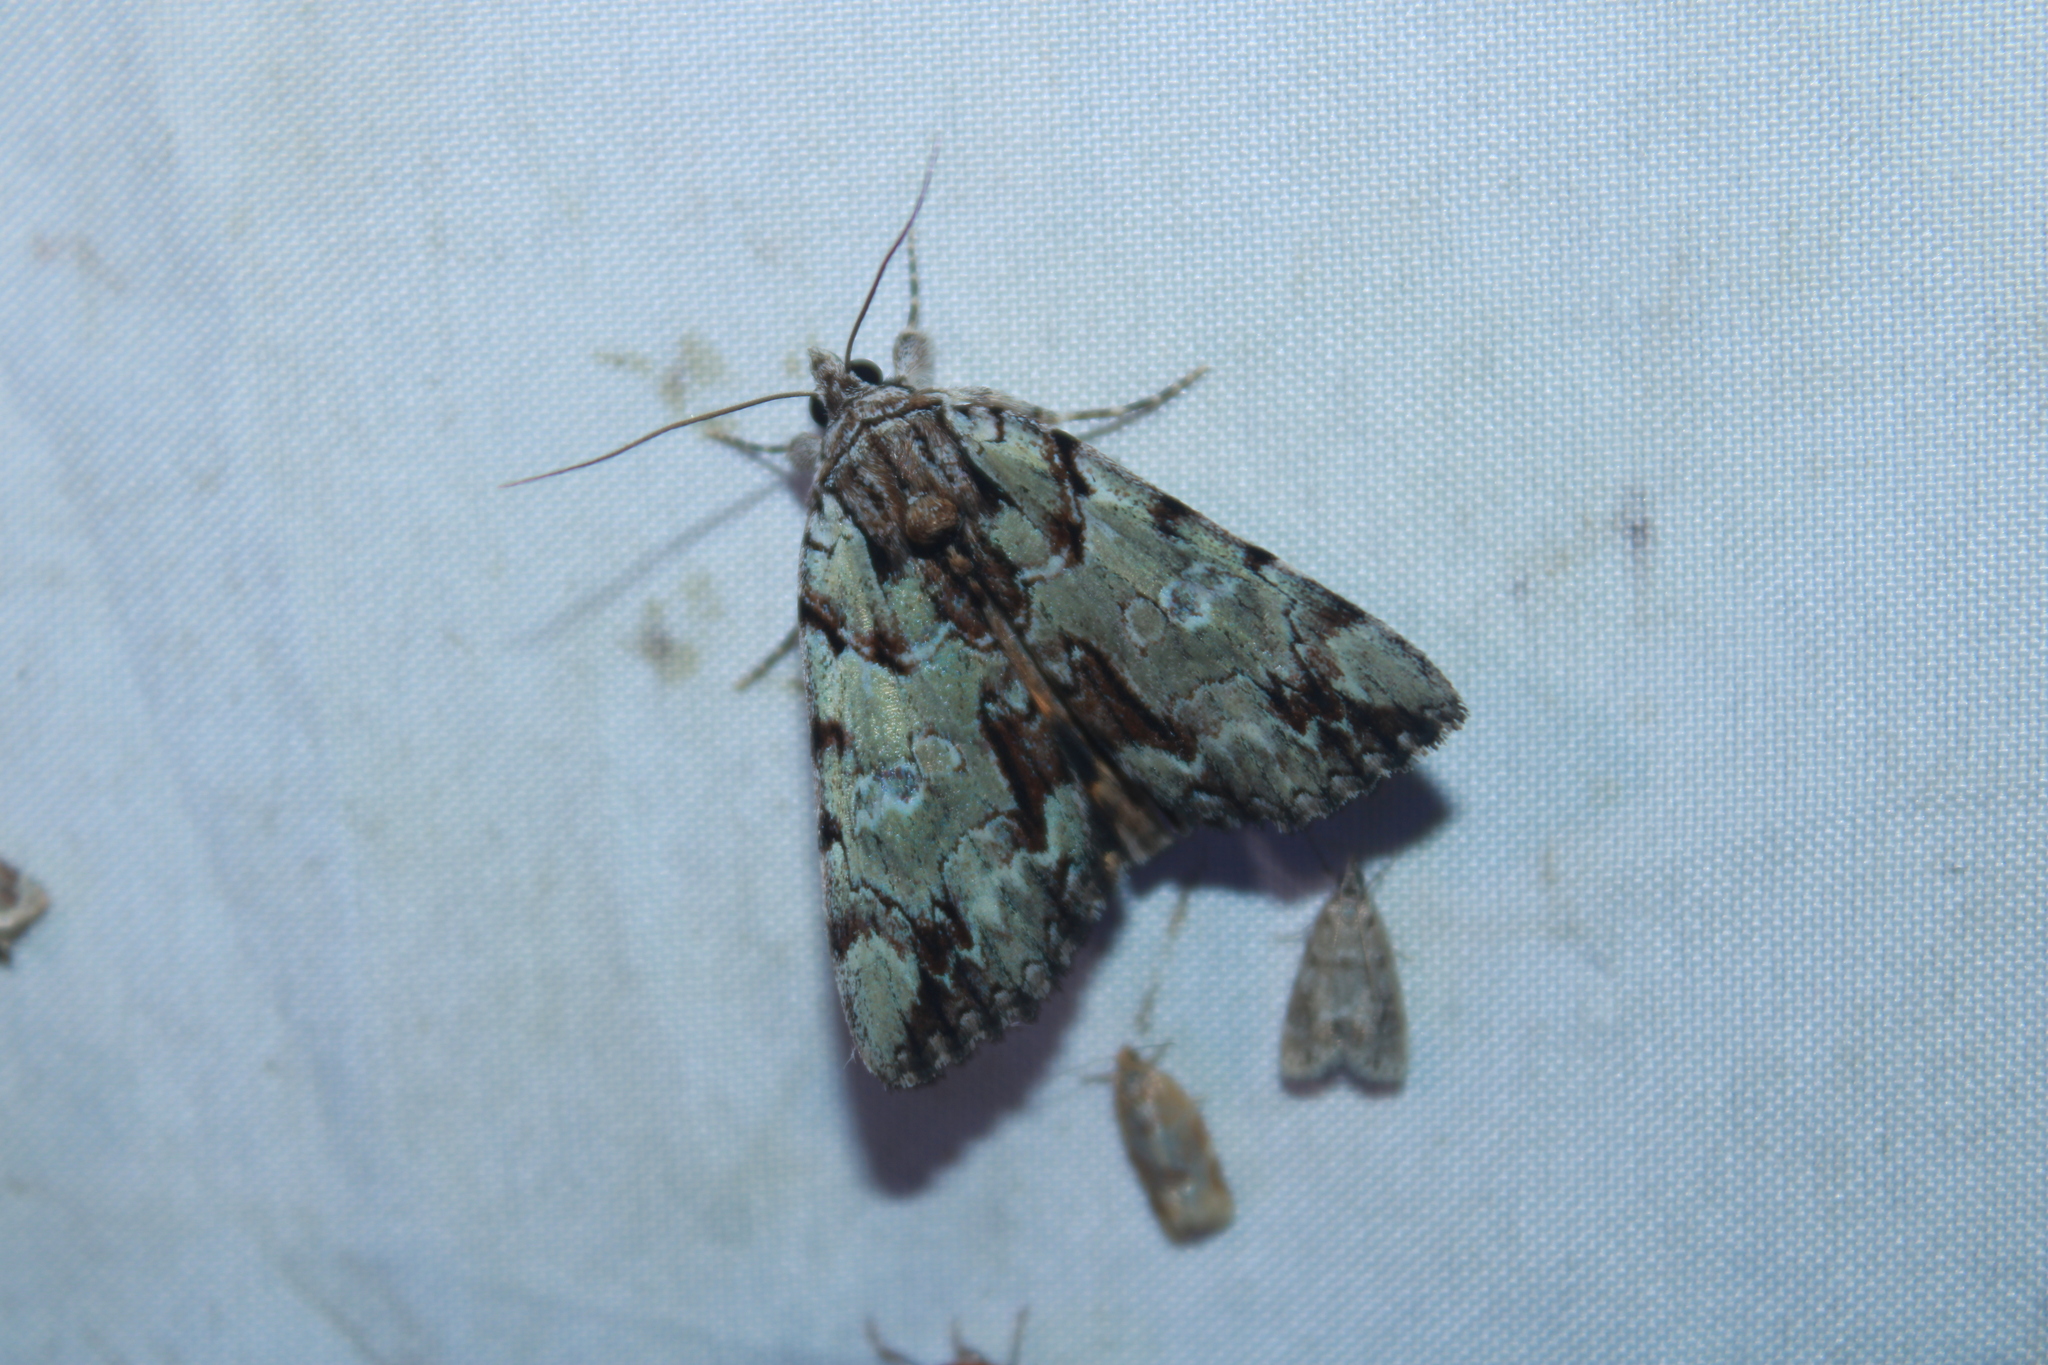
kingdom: Animalia
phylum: Arthropoda
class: Insecta
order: Lepidoptera
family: Erebidae
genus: Catocala
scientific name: Catocala praeclara
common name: Praeclara underwing
